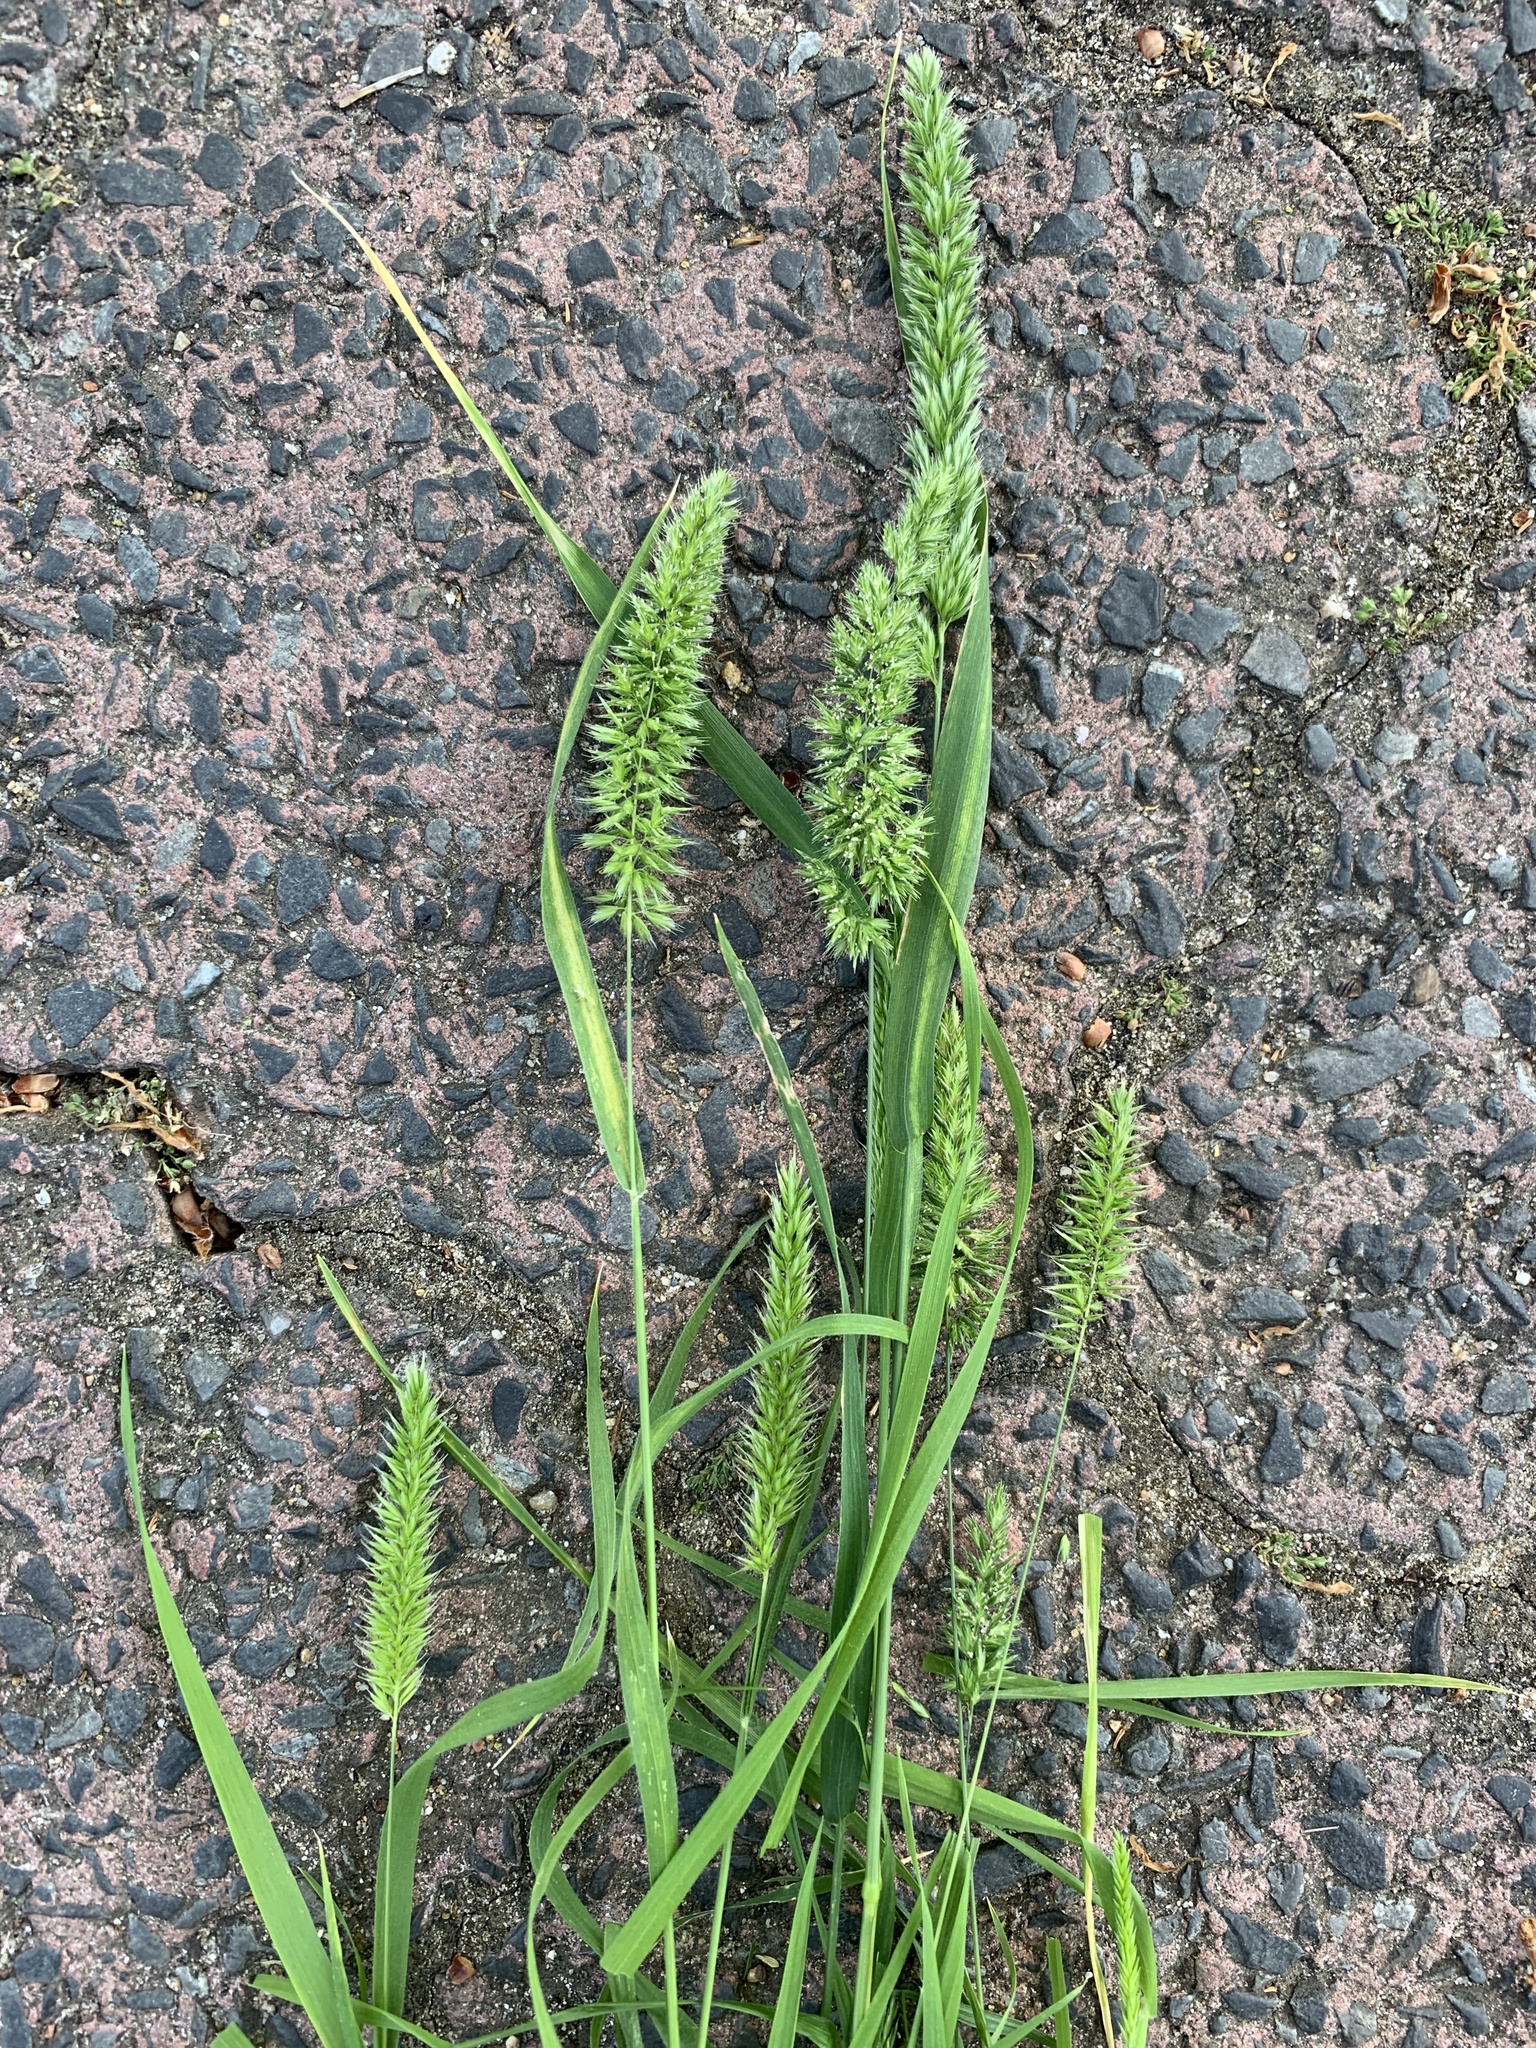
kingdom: Plantae
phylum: Tracheophyta
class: Liliopsida
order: Poales
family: Poaceae
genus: Rostraria
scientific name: Rostraria cristata
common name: Mediterranean hair-grass
